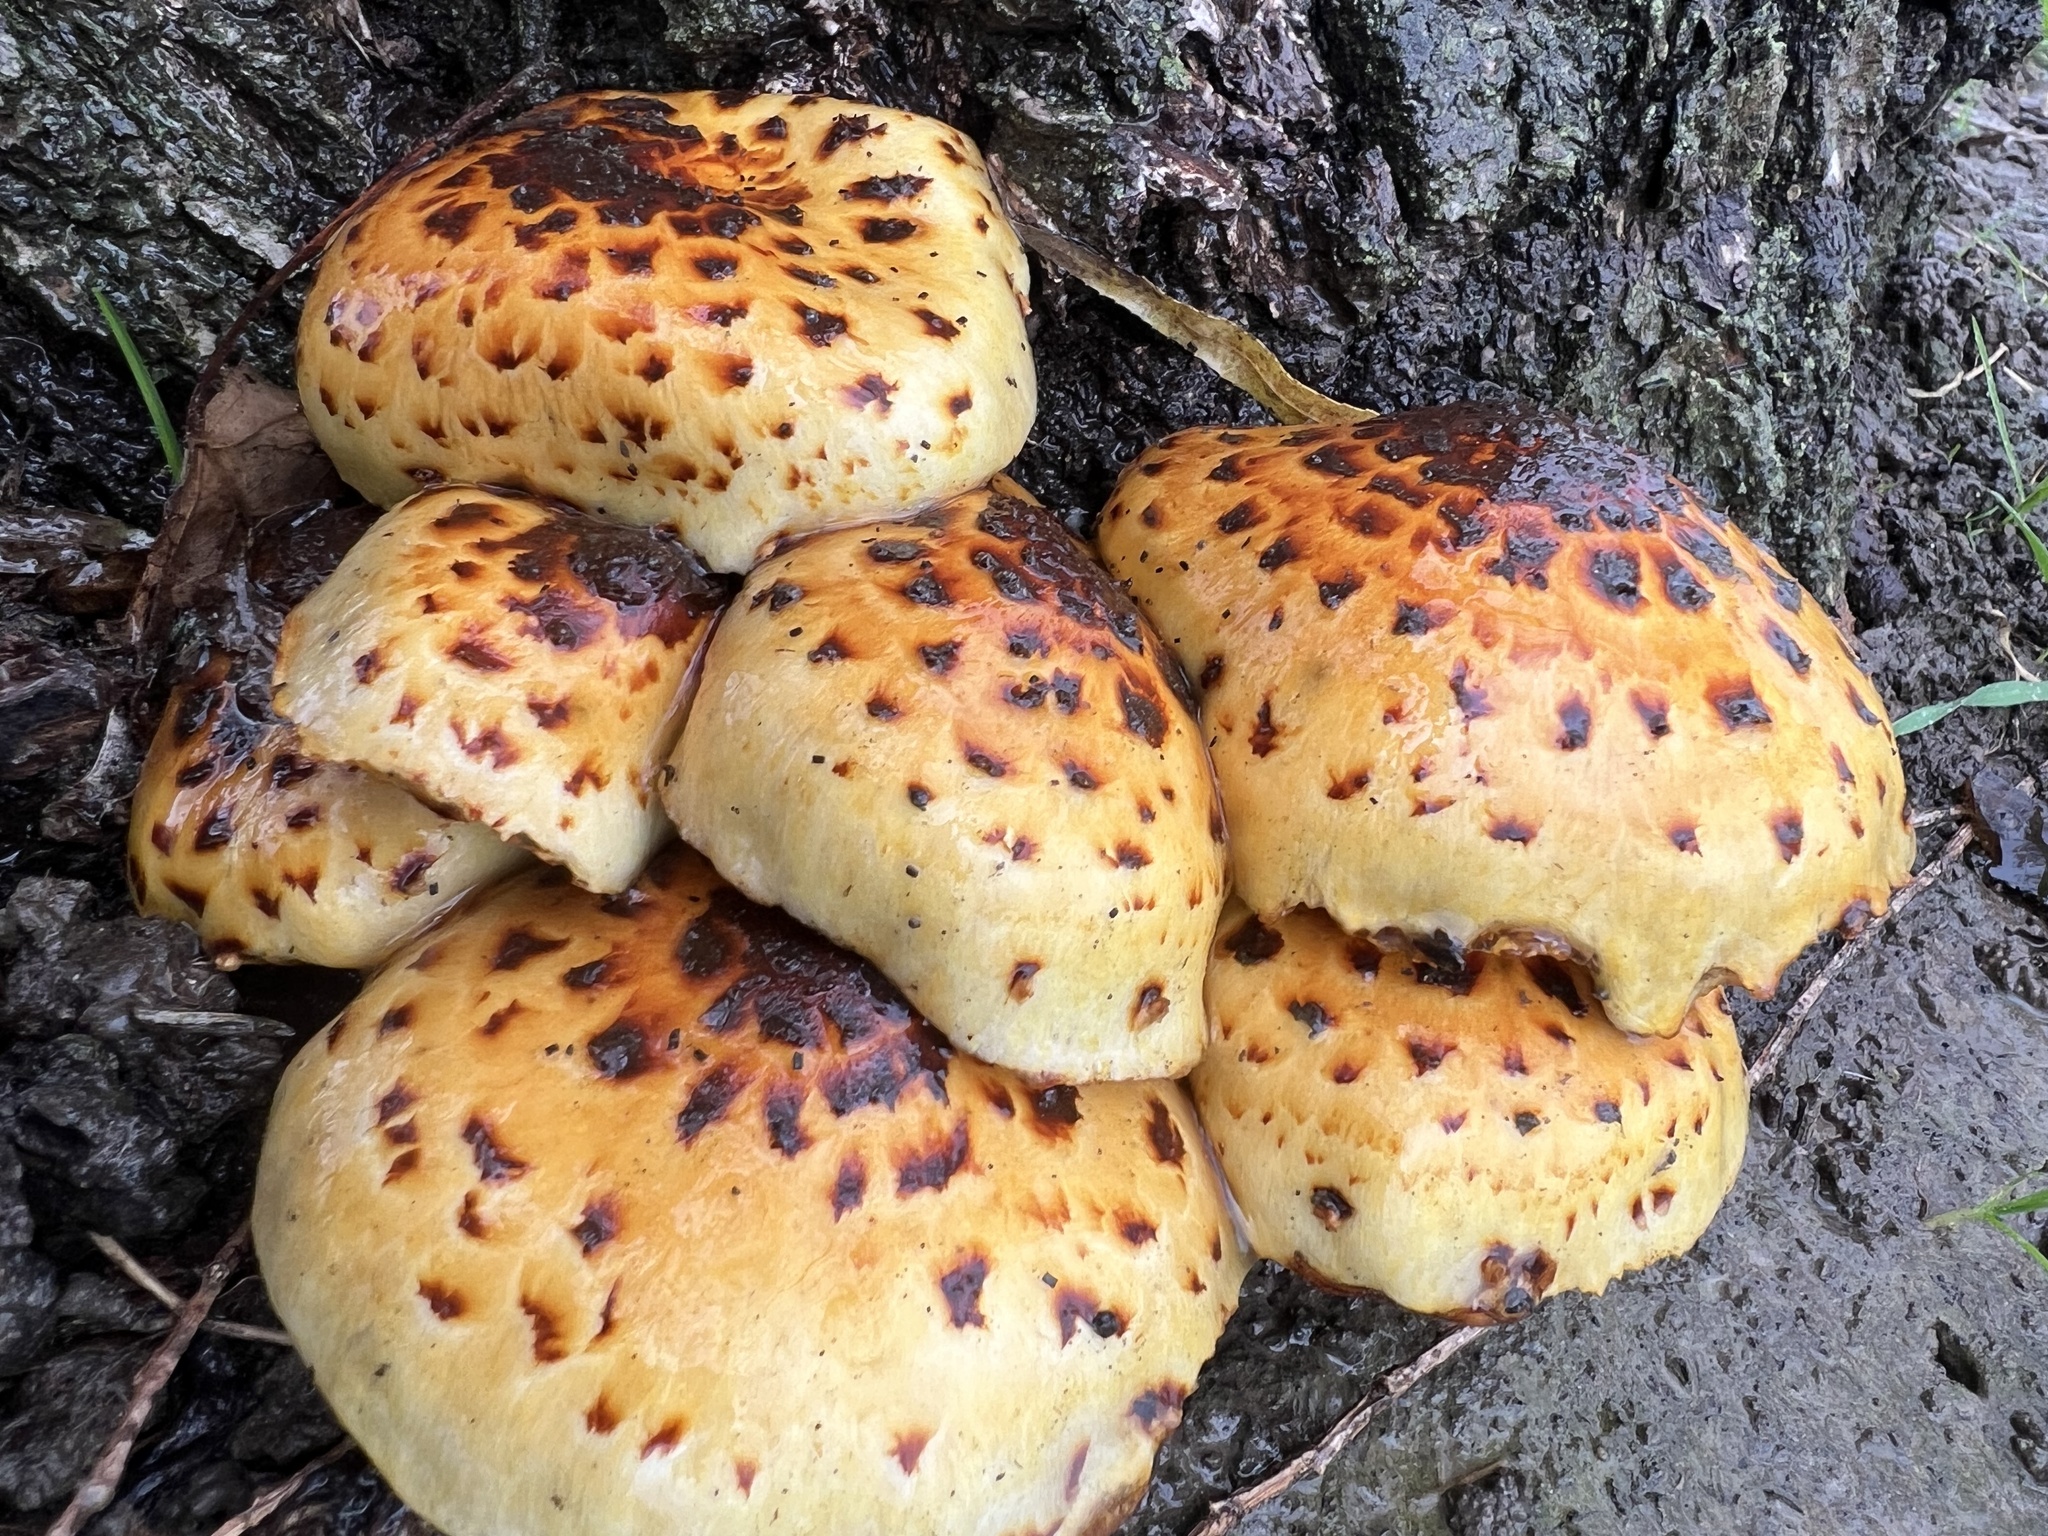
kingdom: Fungi
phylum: Basidiomycota
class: Agaricomycetes
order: Agaricales
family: Strophariaceae
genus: Pholiota
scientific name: Pholiota glutinosa
